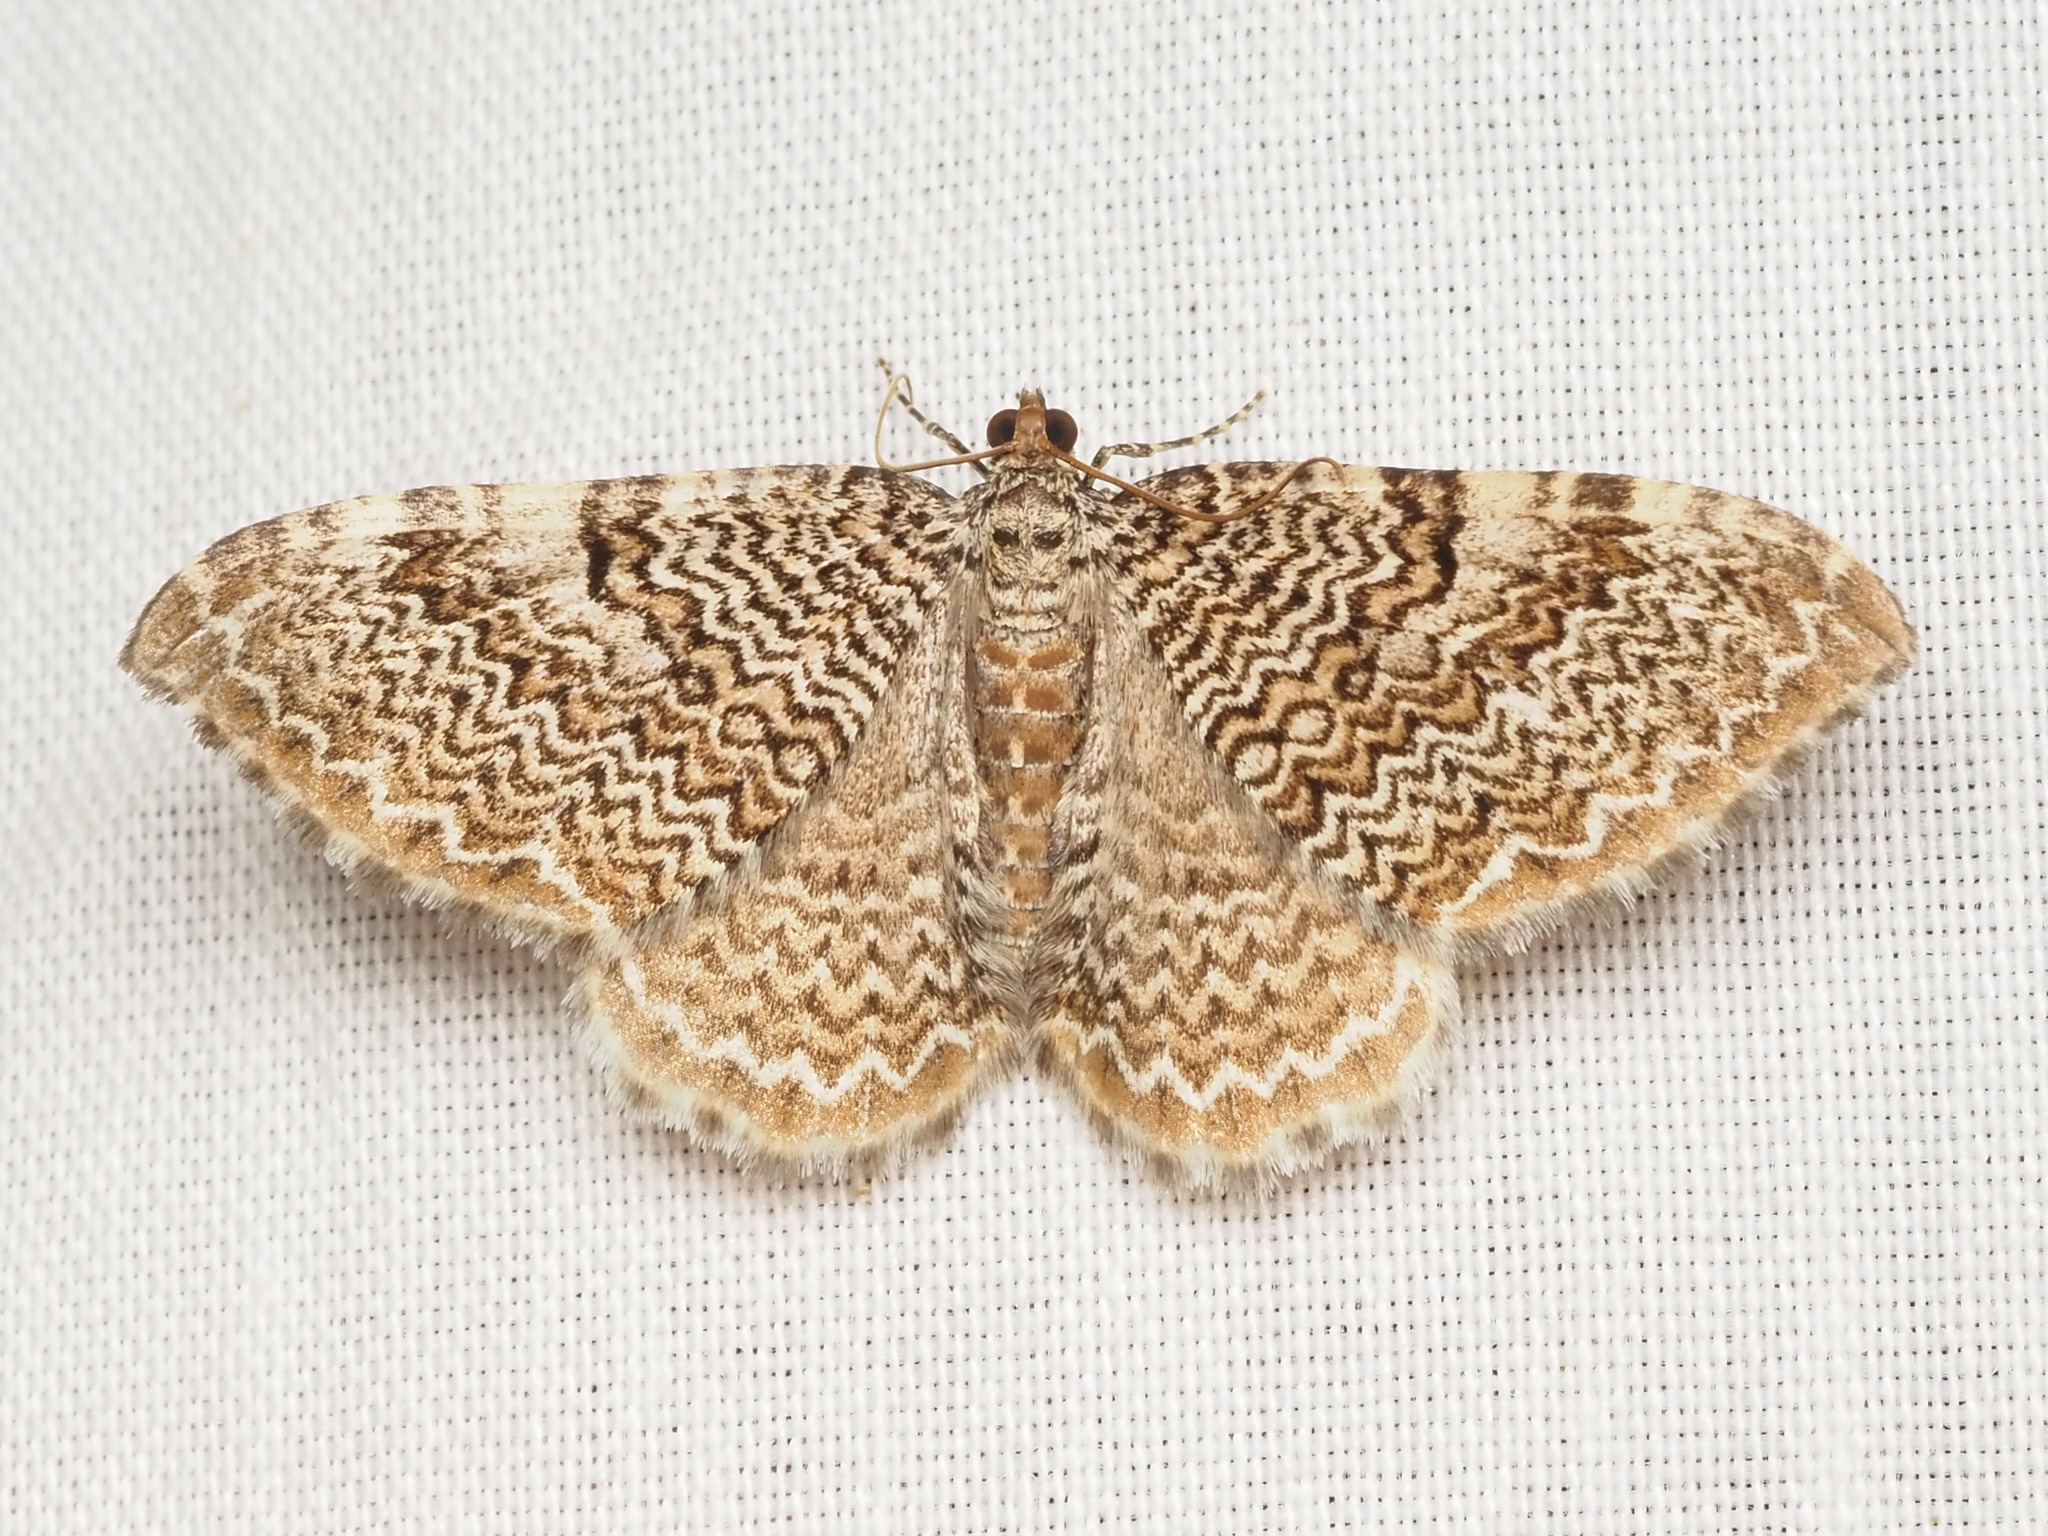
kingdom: Animalia
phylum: Arthropoda
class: Insecta
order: Lepidoptera
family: Geometridae
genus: Rheumaptera
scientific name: Rheumaptera prunivorata
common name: Cherry scallop shell moth
